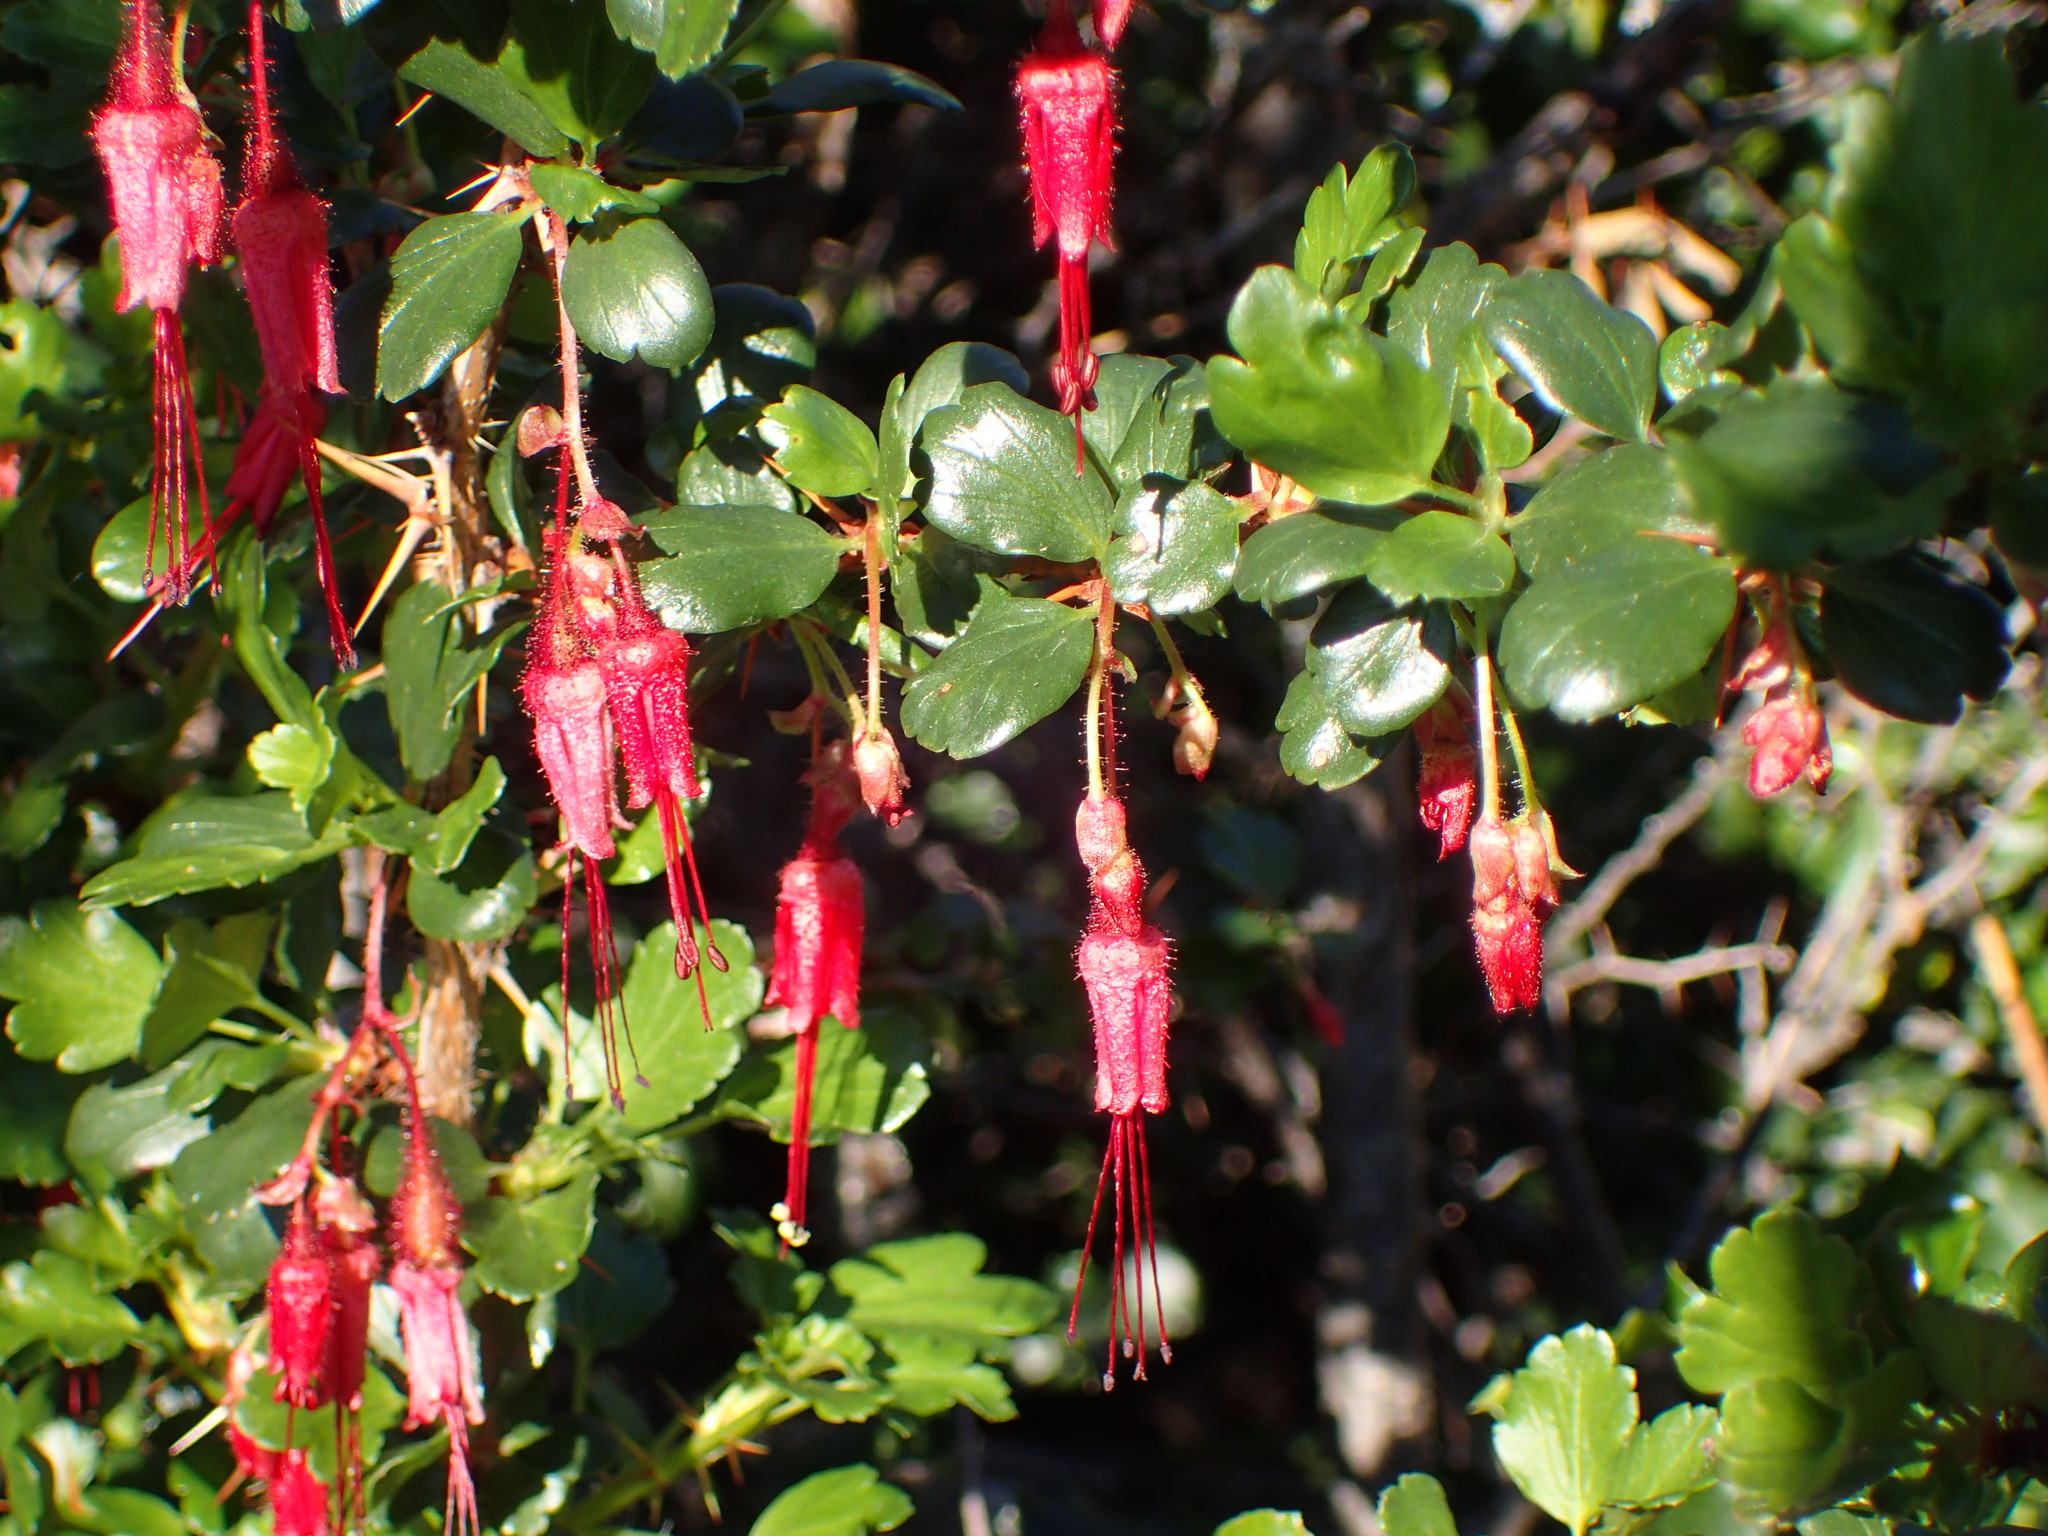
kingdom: Plantae
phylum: Tracheophyta
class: Magnoliopsida
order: Saxifragales
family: Grossulariaceae
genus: Ribes
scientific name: Ribes speciosum
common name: Fuchsia-flower gooseberry
